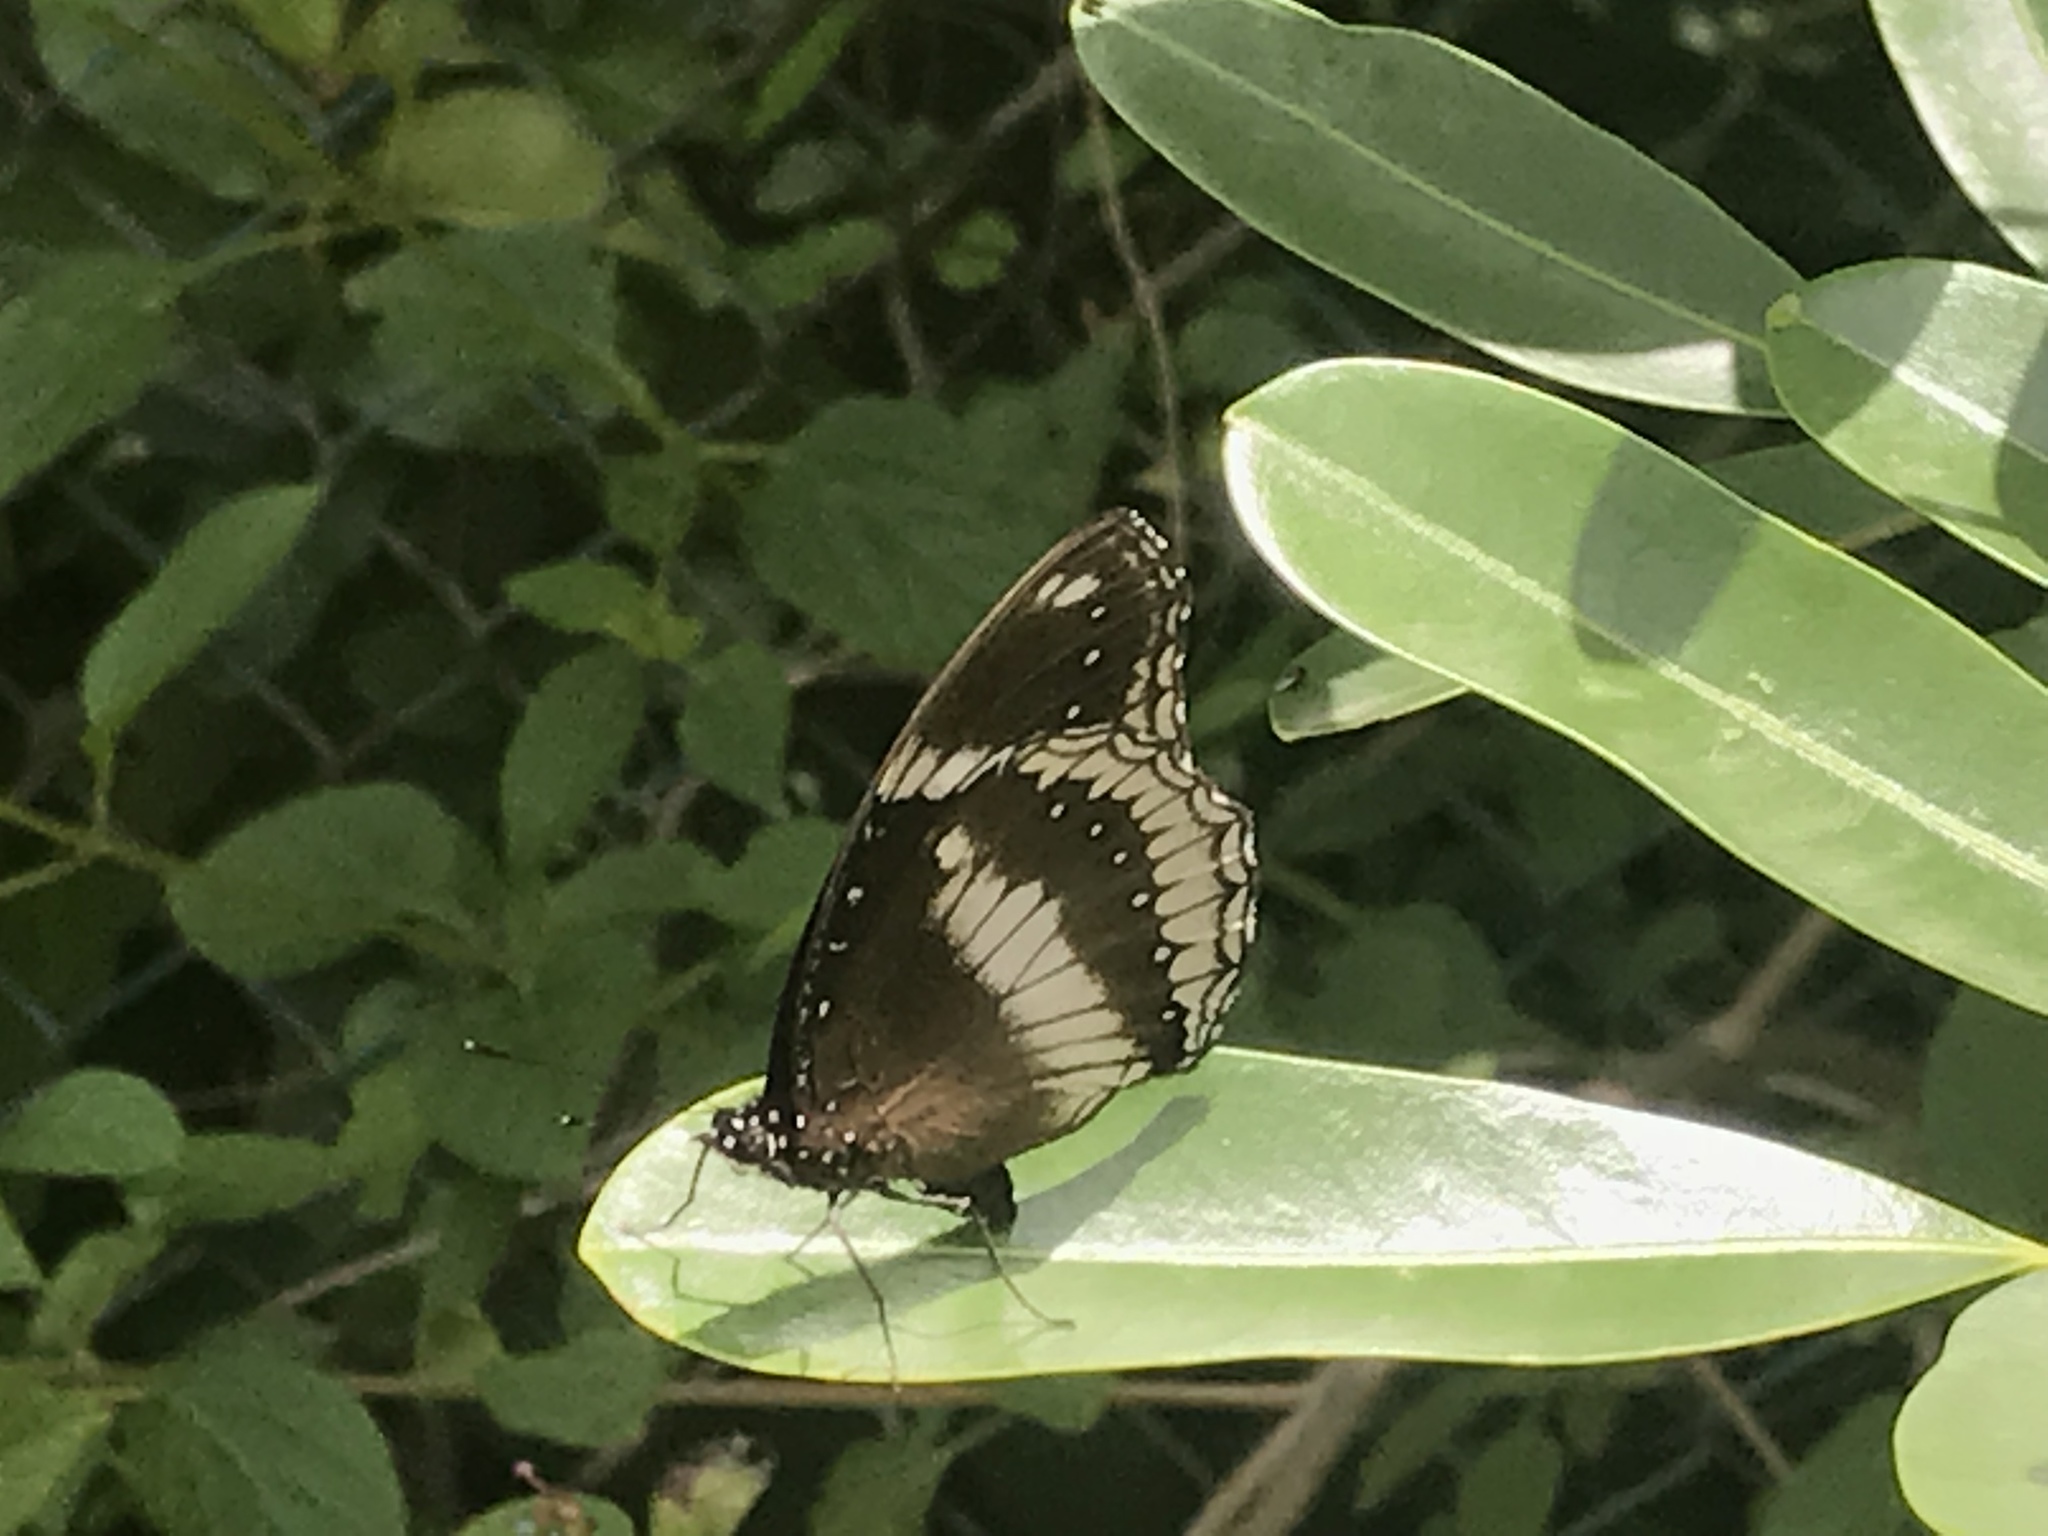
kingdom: Animalia
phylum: Arthropoda
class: Insecta
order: Lepidoptera
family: Nymphalidae
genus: Hypolimnas
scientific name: Hypolimnas bolina
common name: Great eggfly
